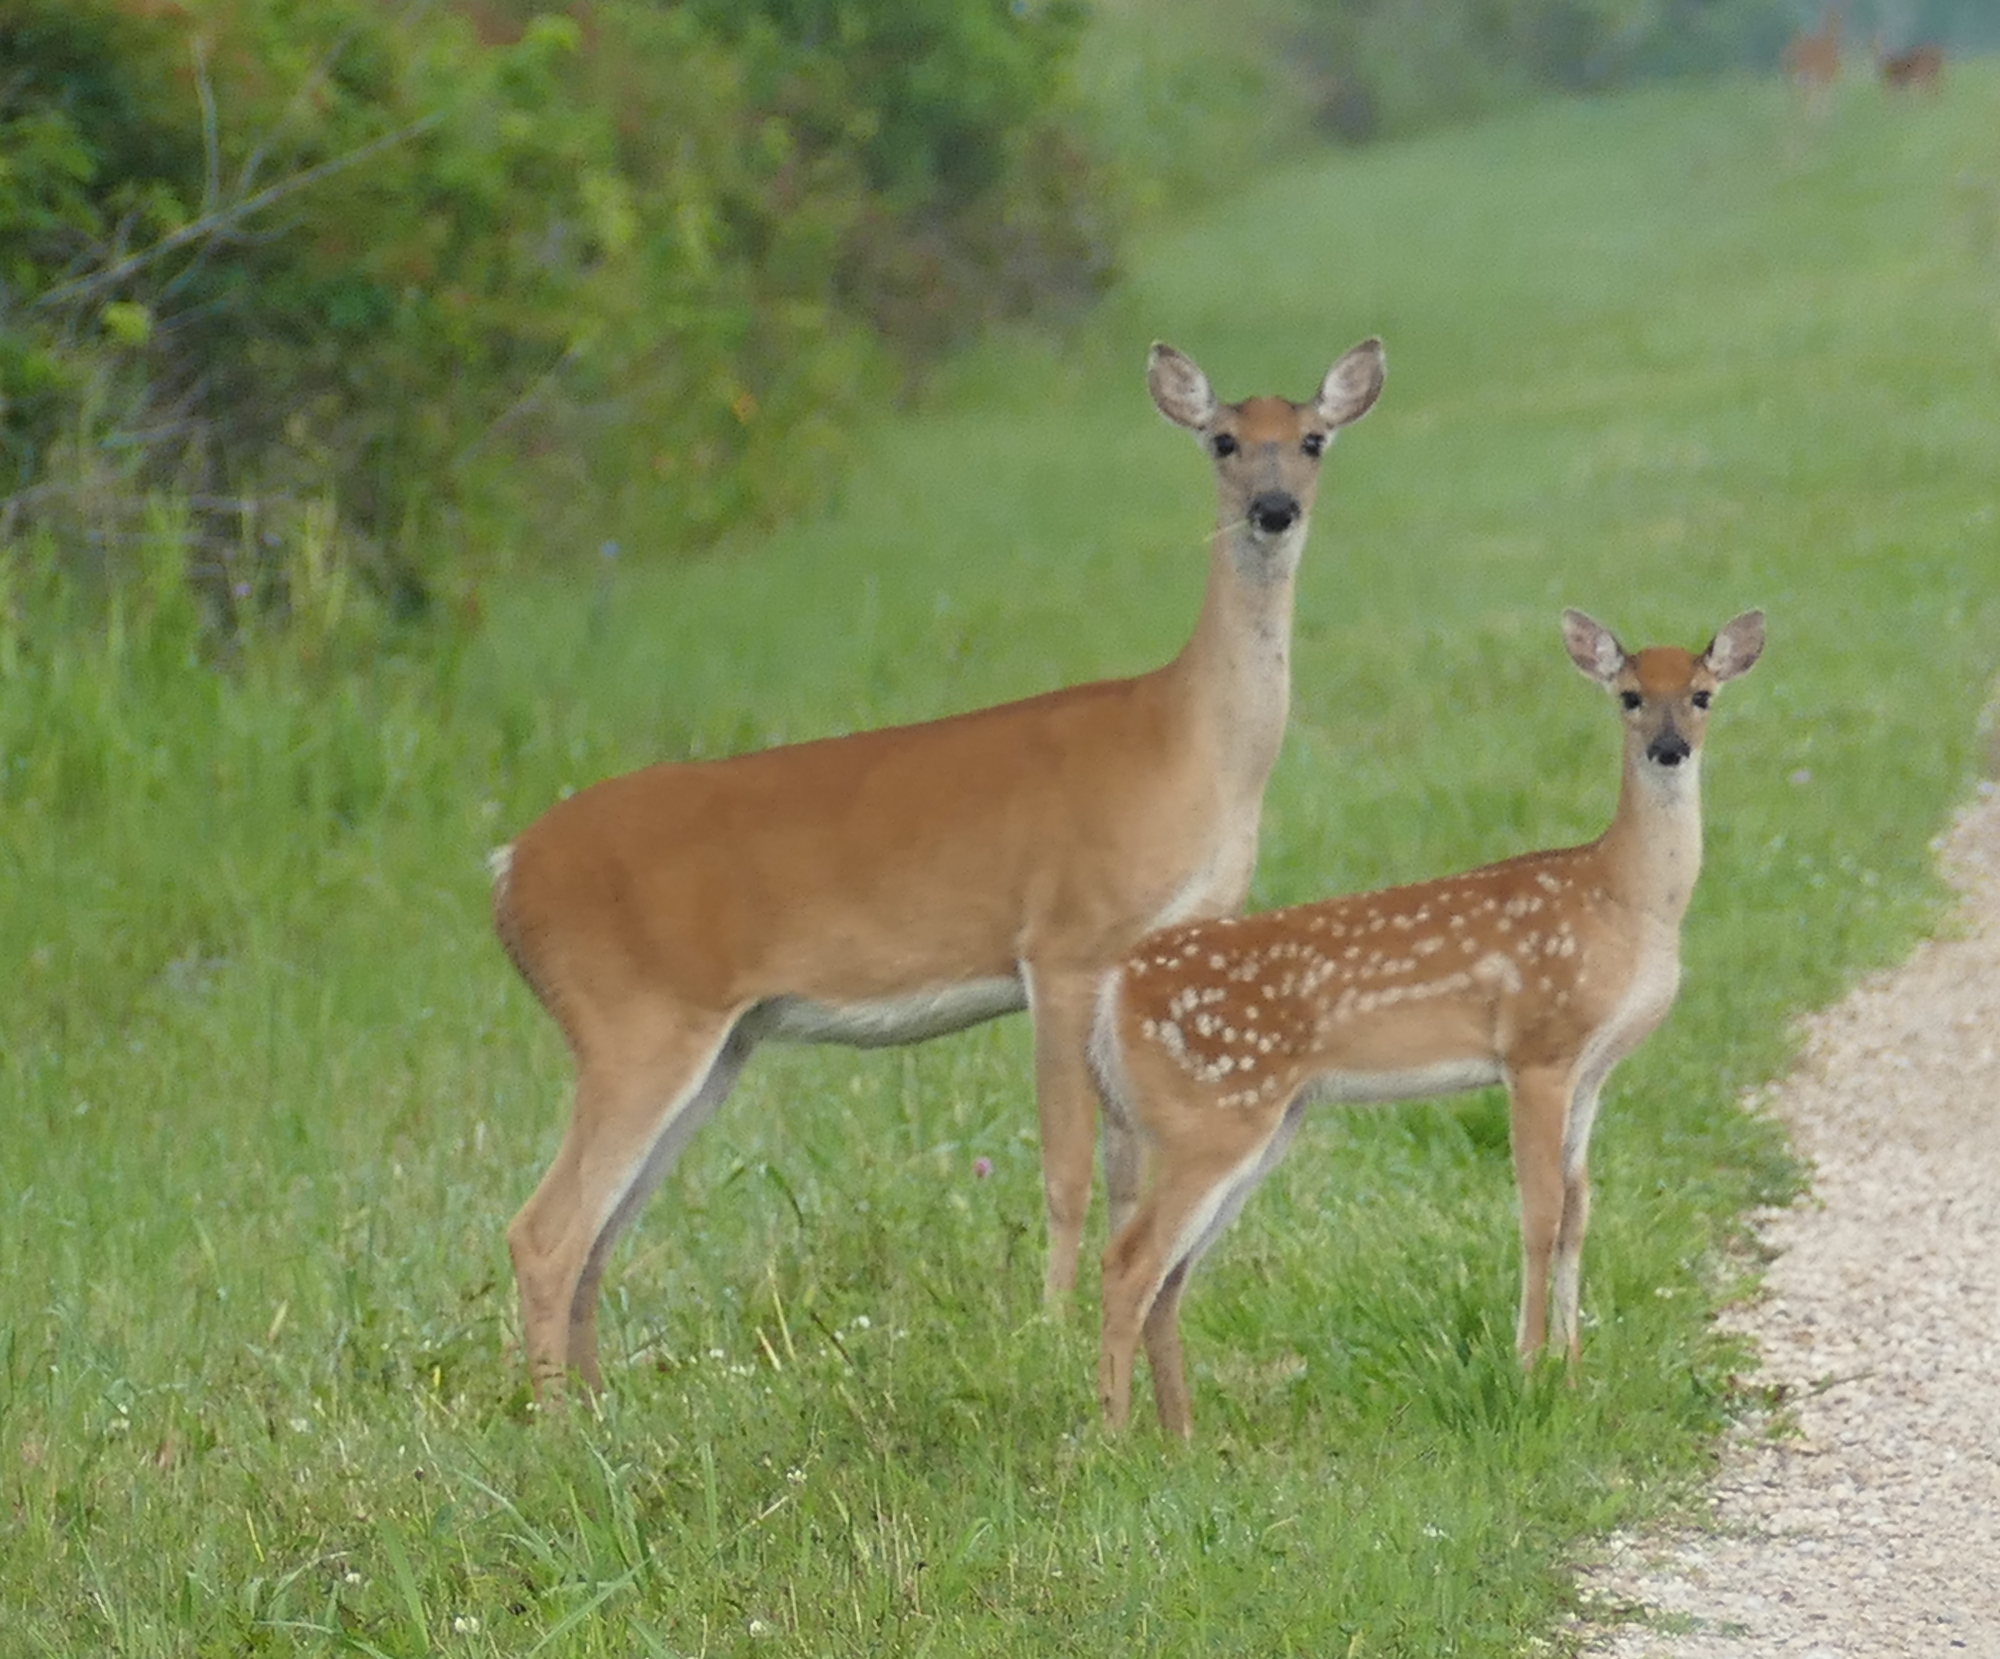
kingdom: Animalia
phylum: Chordata
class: Mammalia
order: Artiodactyla
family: Cervidae
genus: Odocoileus
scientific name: Odocoileus virginianus
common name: White-tailed deer
